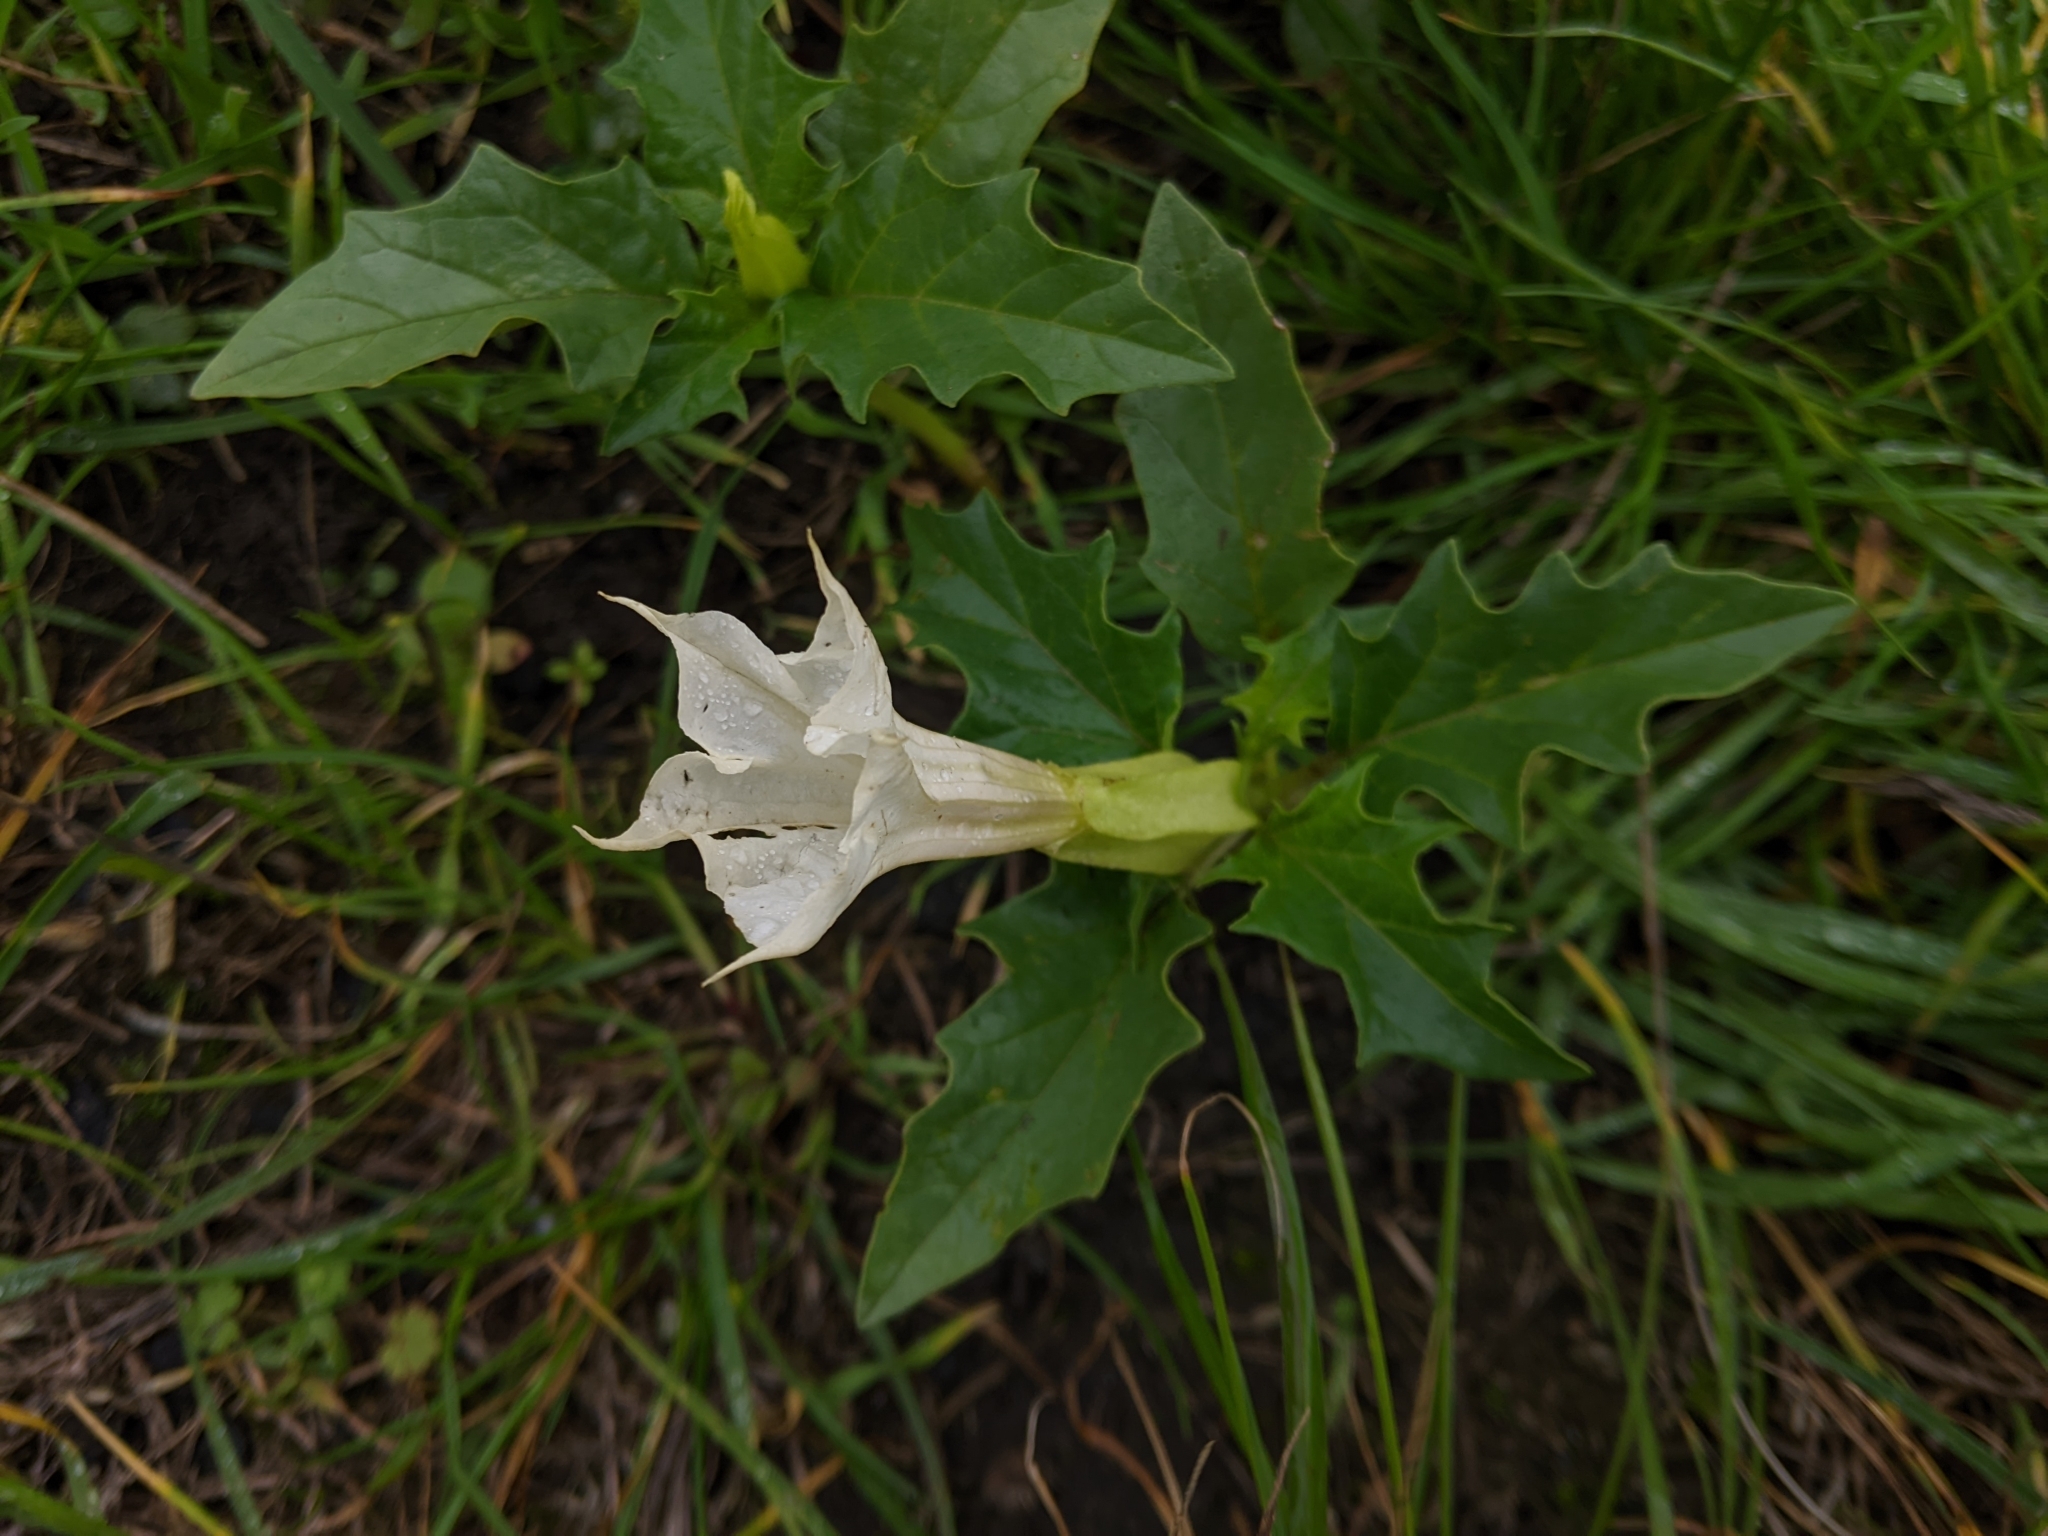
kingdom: Plantae
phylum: Tracheophyta
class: Magnoliopsida
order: Solanales
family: Solanaceae
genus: Datura
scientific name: Datura stramonium
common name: Thorn-apple
